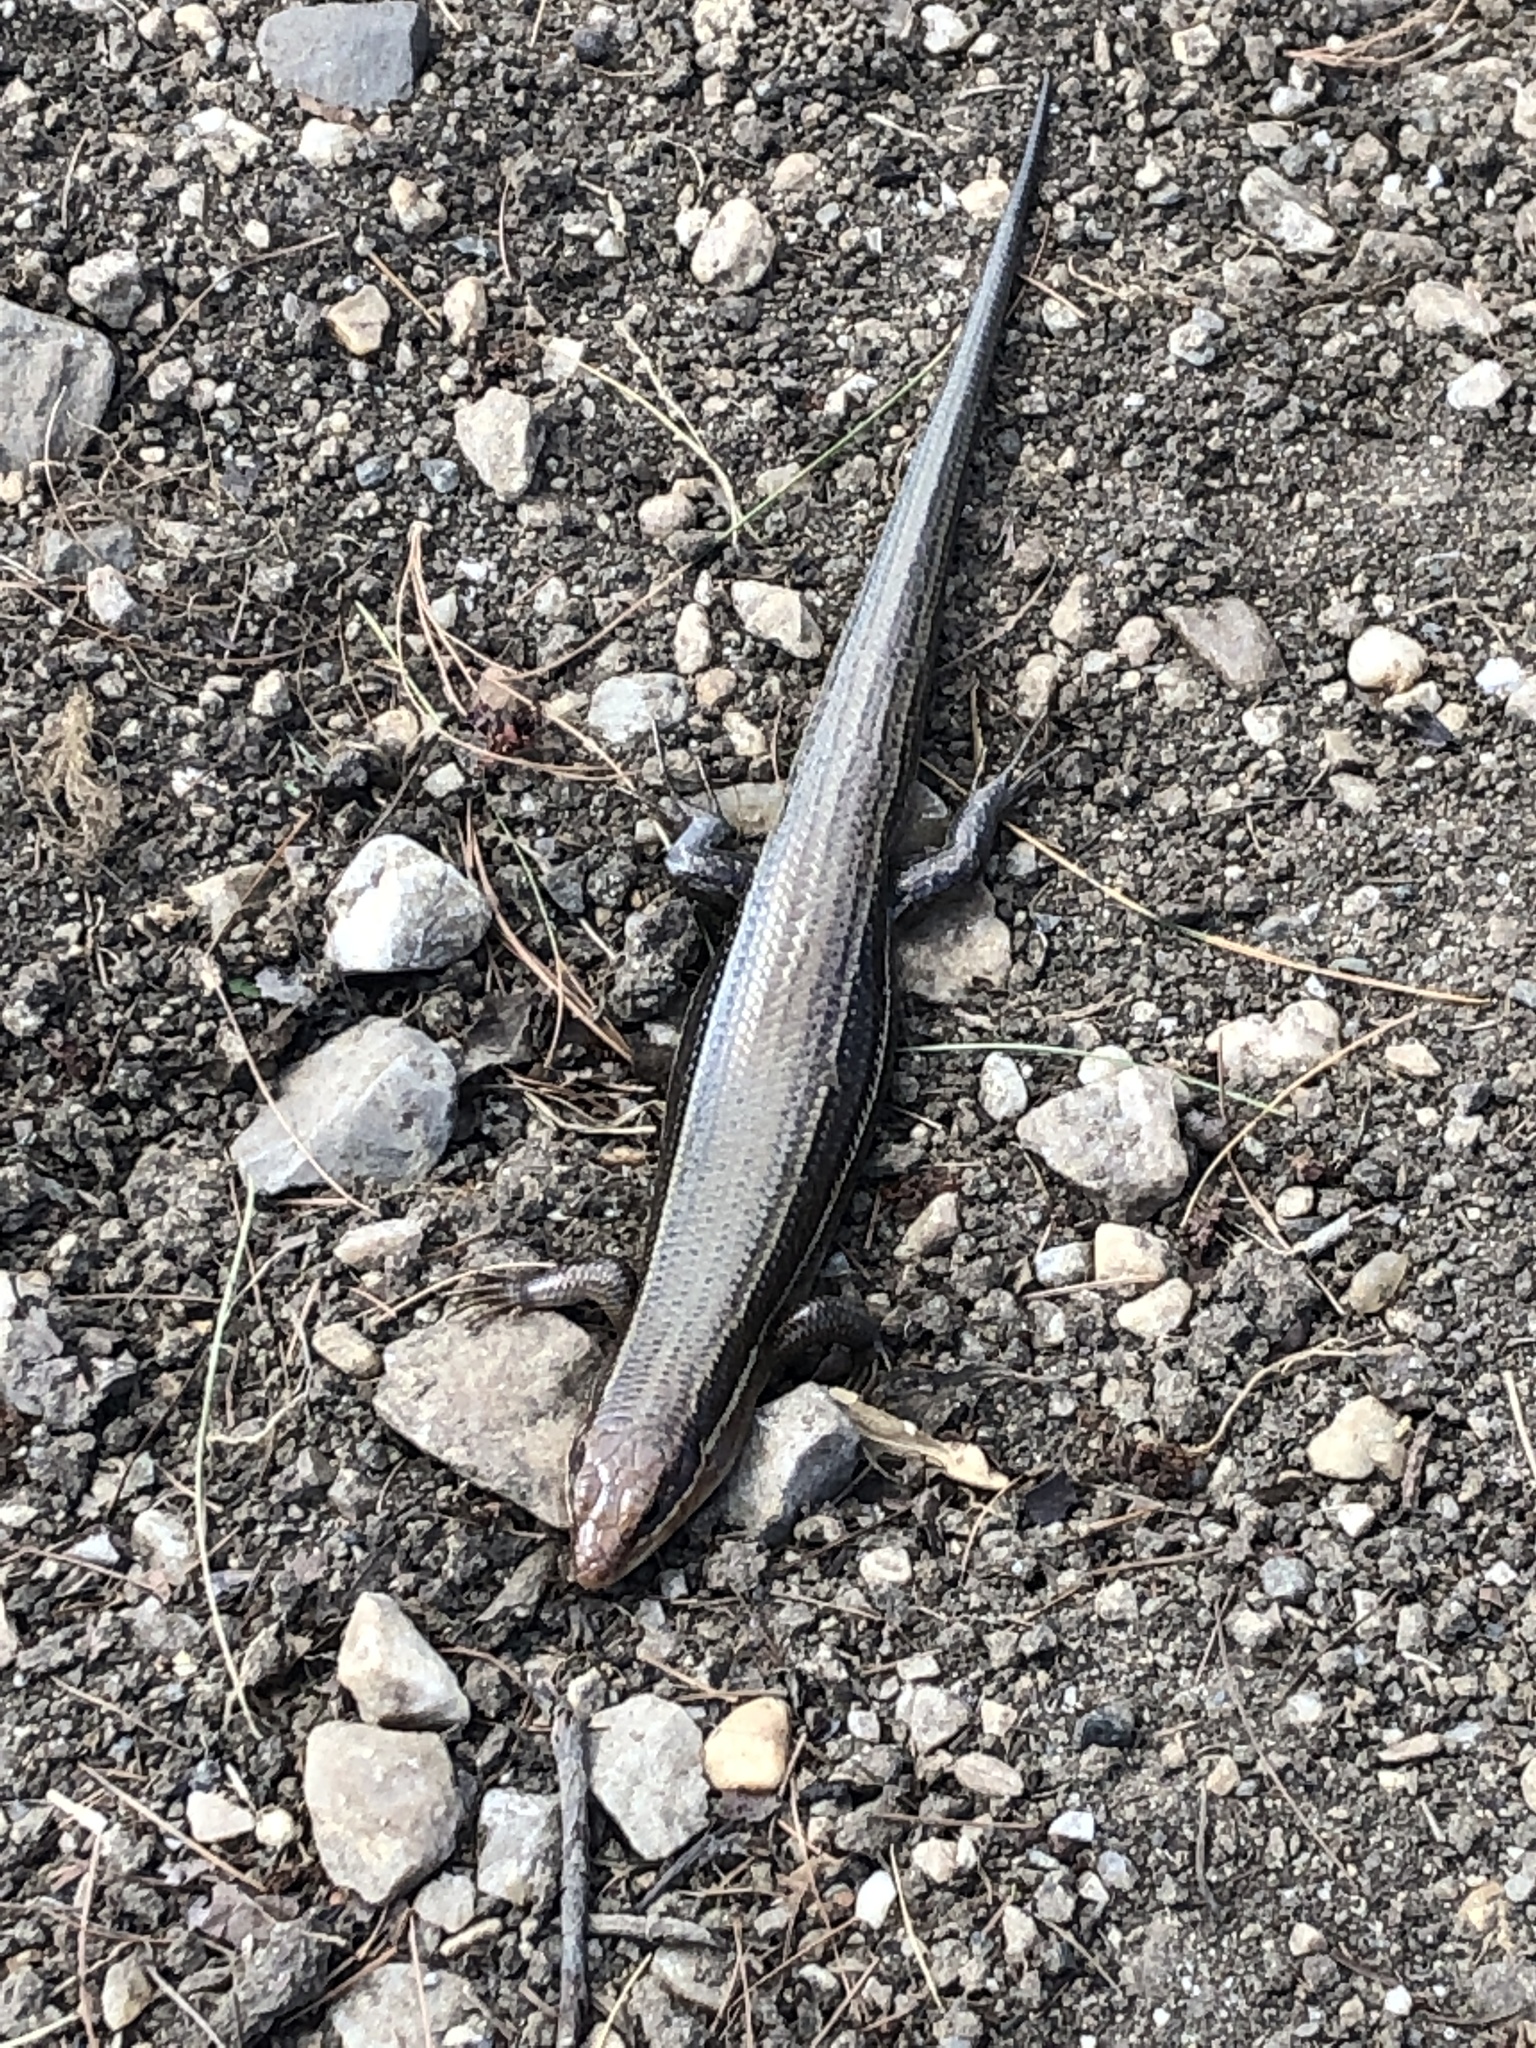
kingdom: Animalia
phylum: Chordata
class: Squamata
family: Scincidae
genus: Plestiodon
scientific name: Plestiodon laticeps
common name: Broadhead skink
